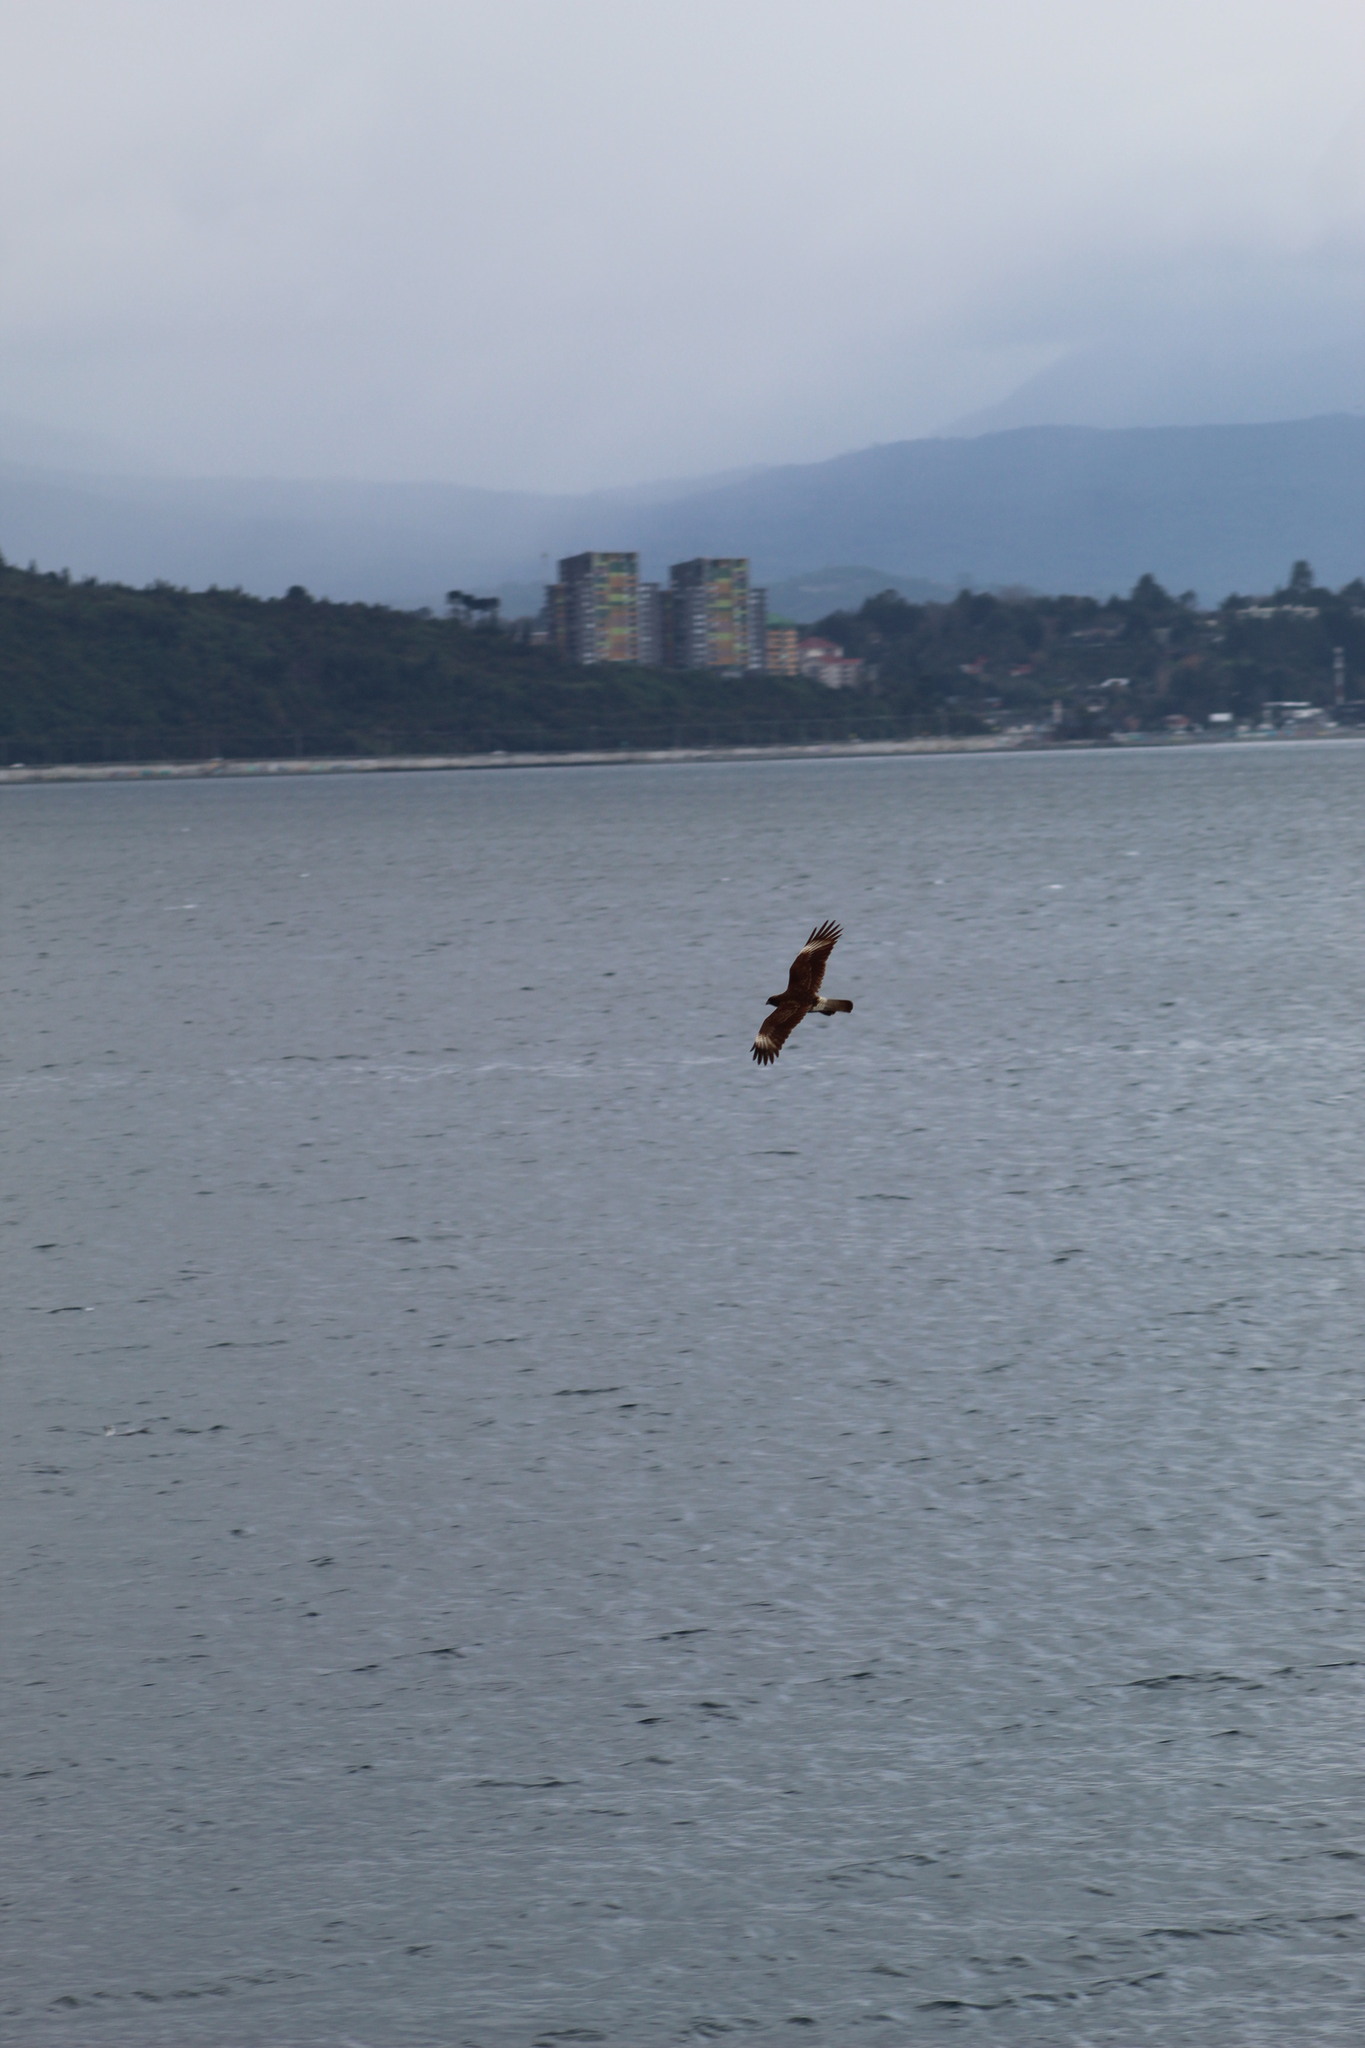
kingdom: Animalia
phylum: Chordata
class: Aves
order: Falconiformes
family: Falconidae
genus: Daptrius
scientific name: Daptrius
